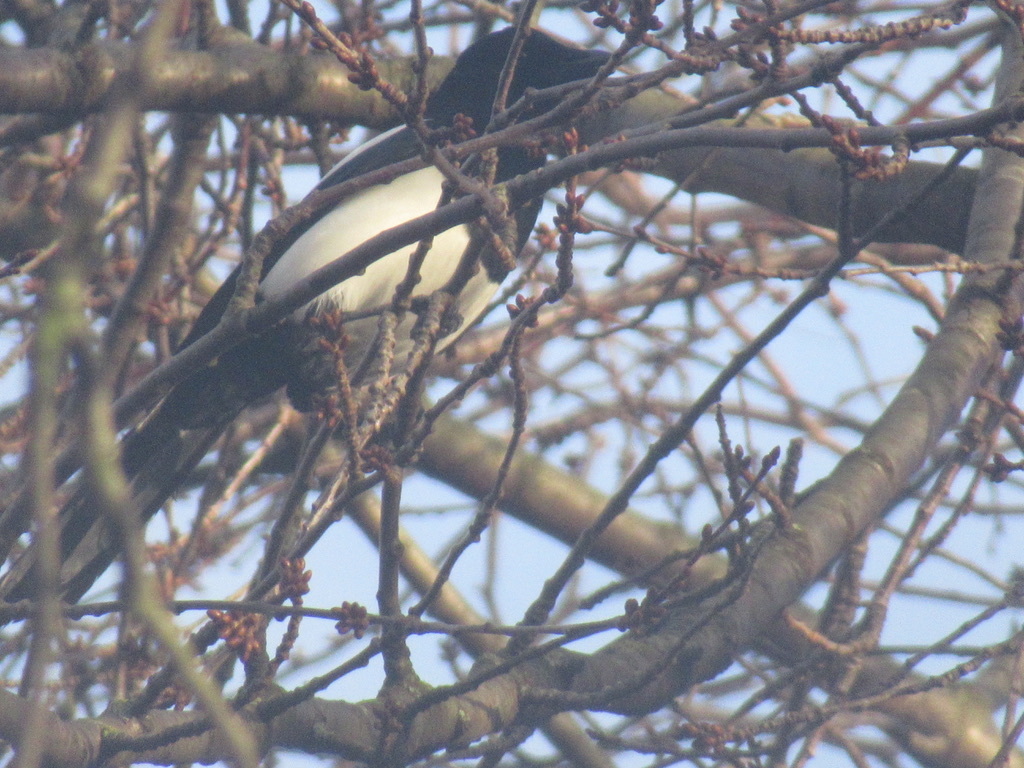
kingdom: Animalia
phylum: Chordata
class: Aves
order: Passeriformes
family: Corvidae
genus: Pica
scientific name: Pica pica
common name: Eurasian magpie
